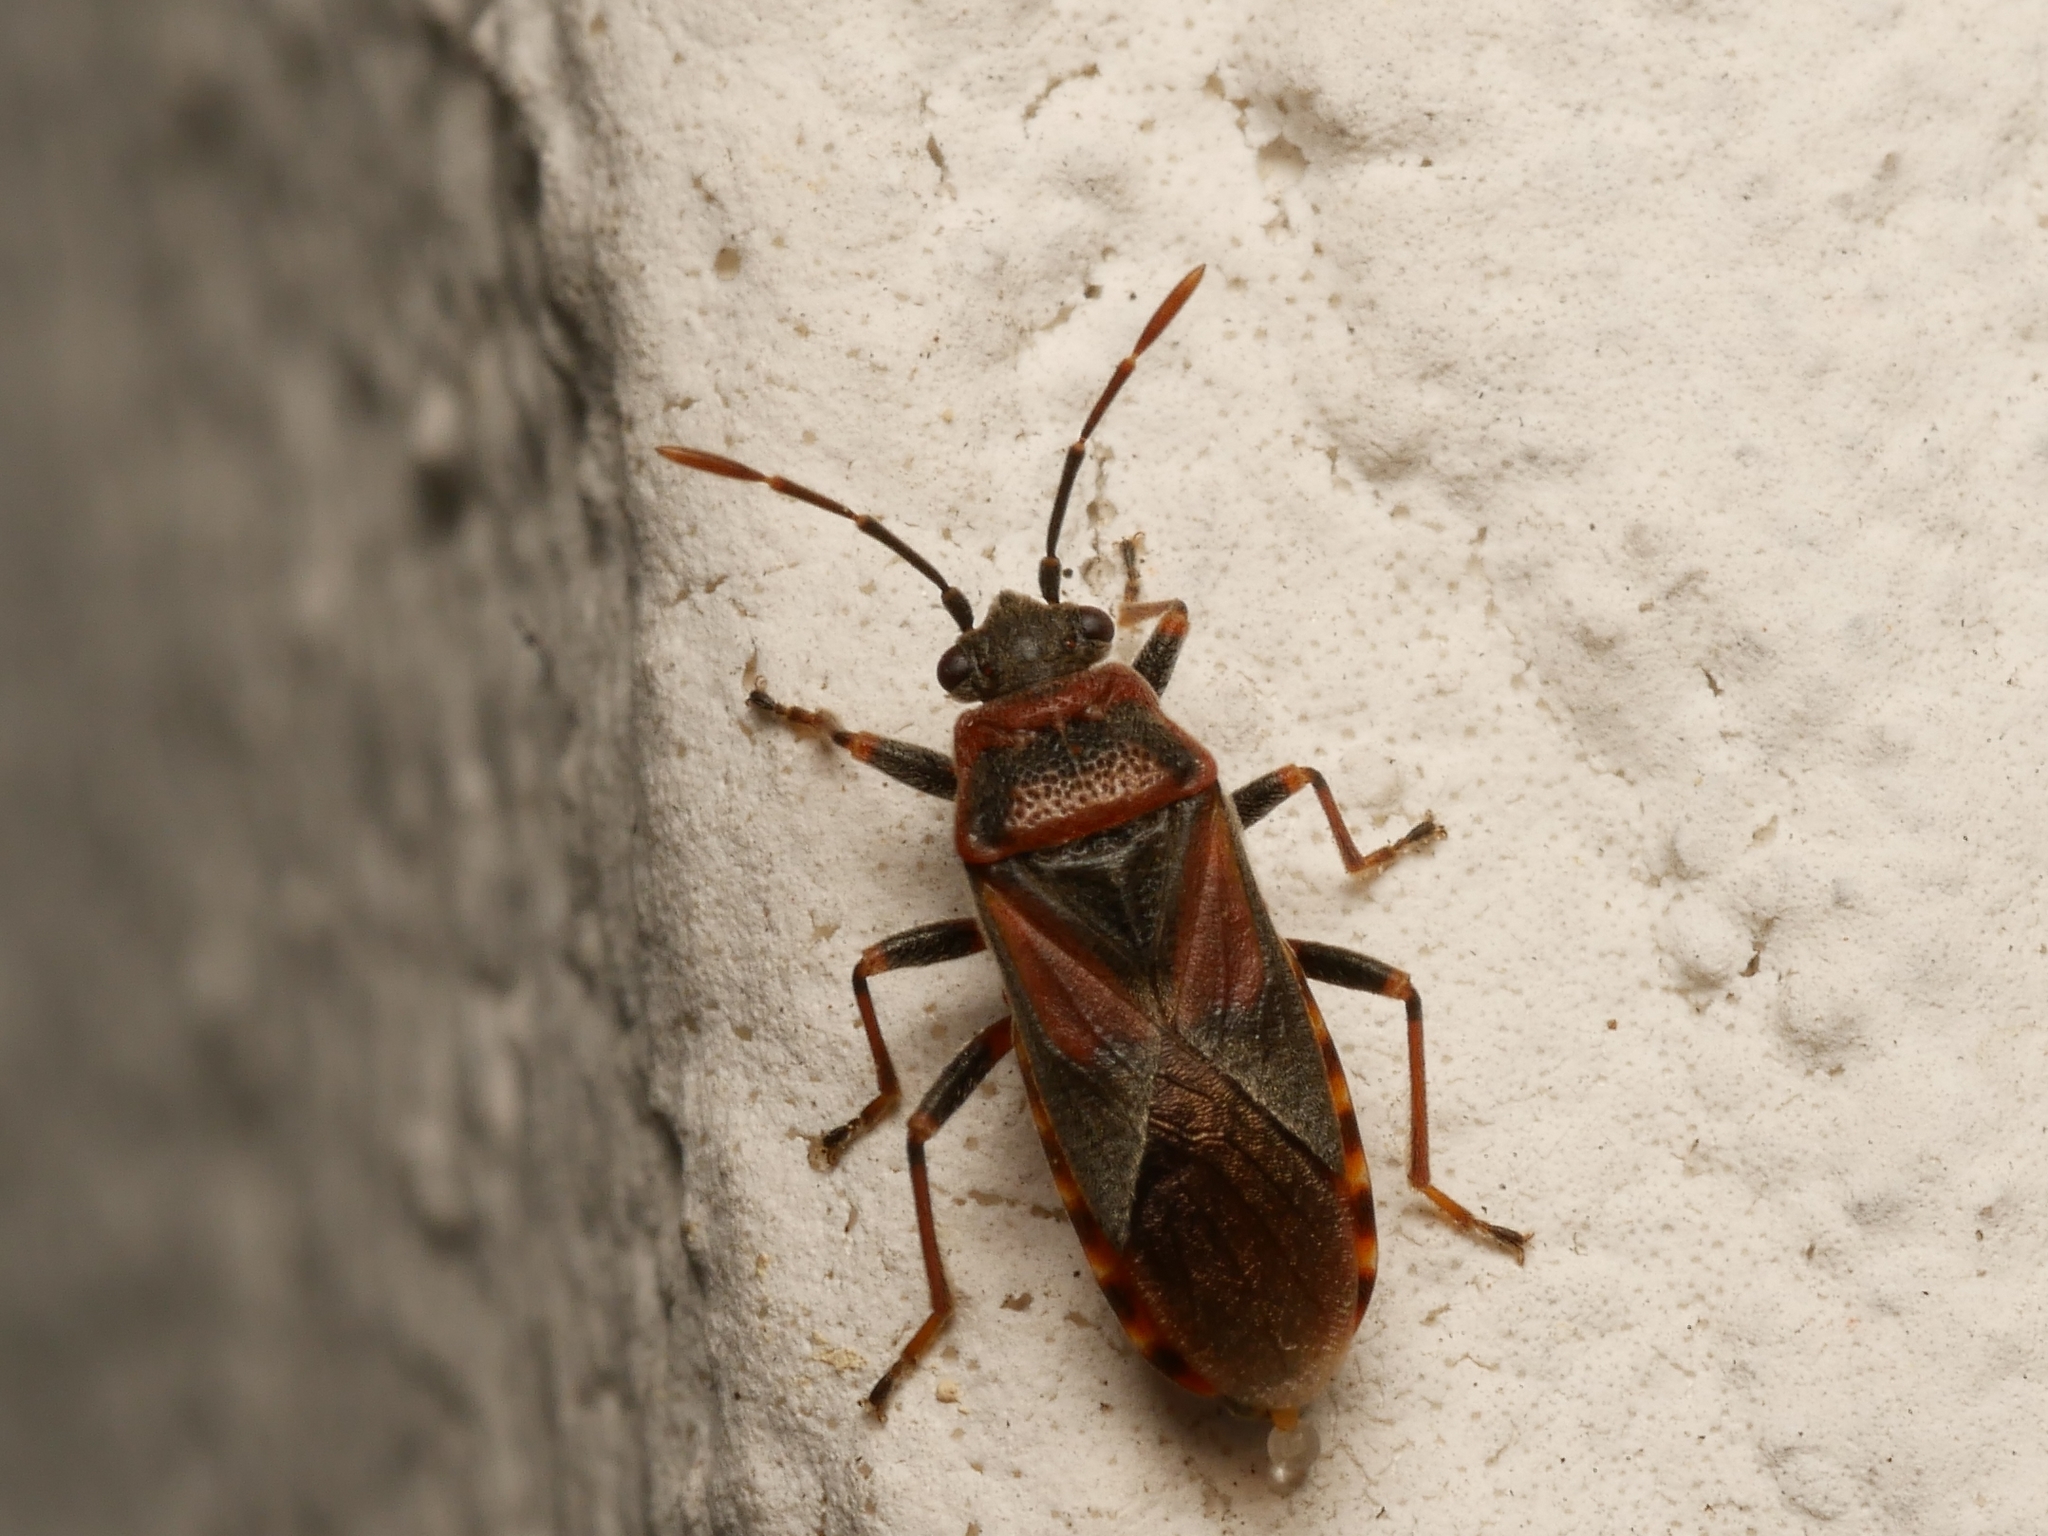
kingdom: Animalia
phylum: Arthropoda
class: Insecta
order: Hemiptera
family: Lygaeidae
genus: Arocatus
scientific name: Arocatus melanocephalus
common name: Lygaeid bug
